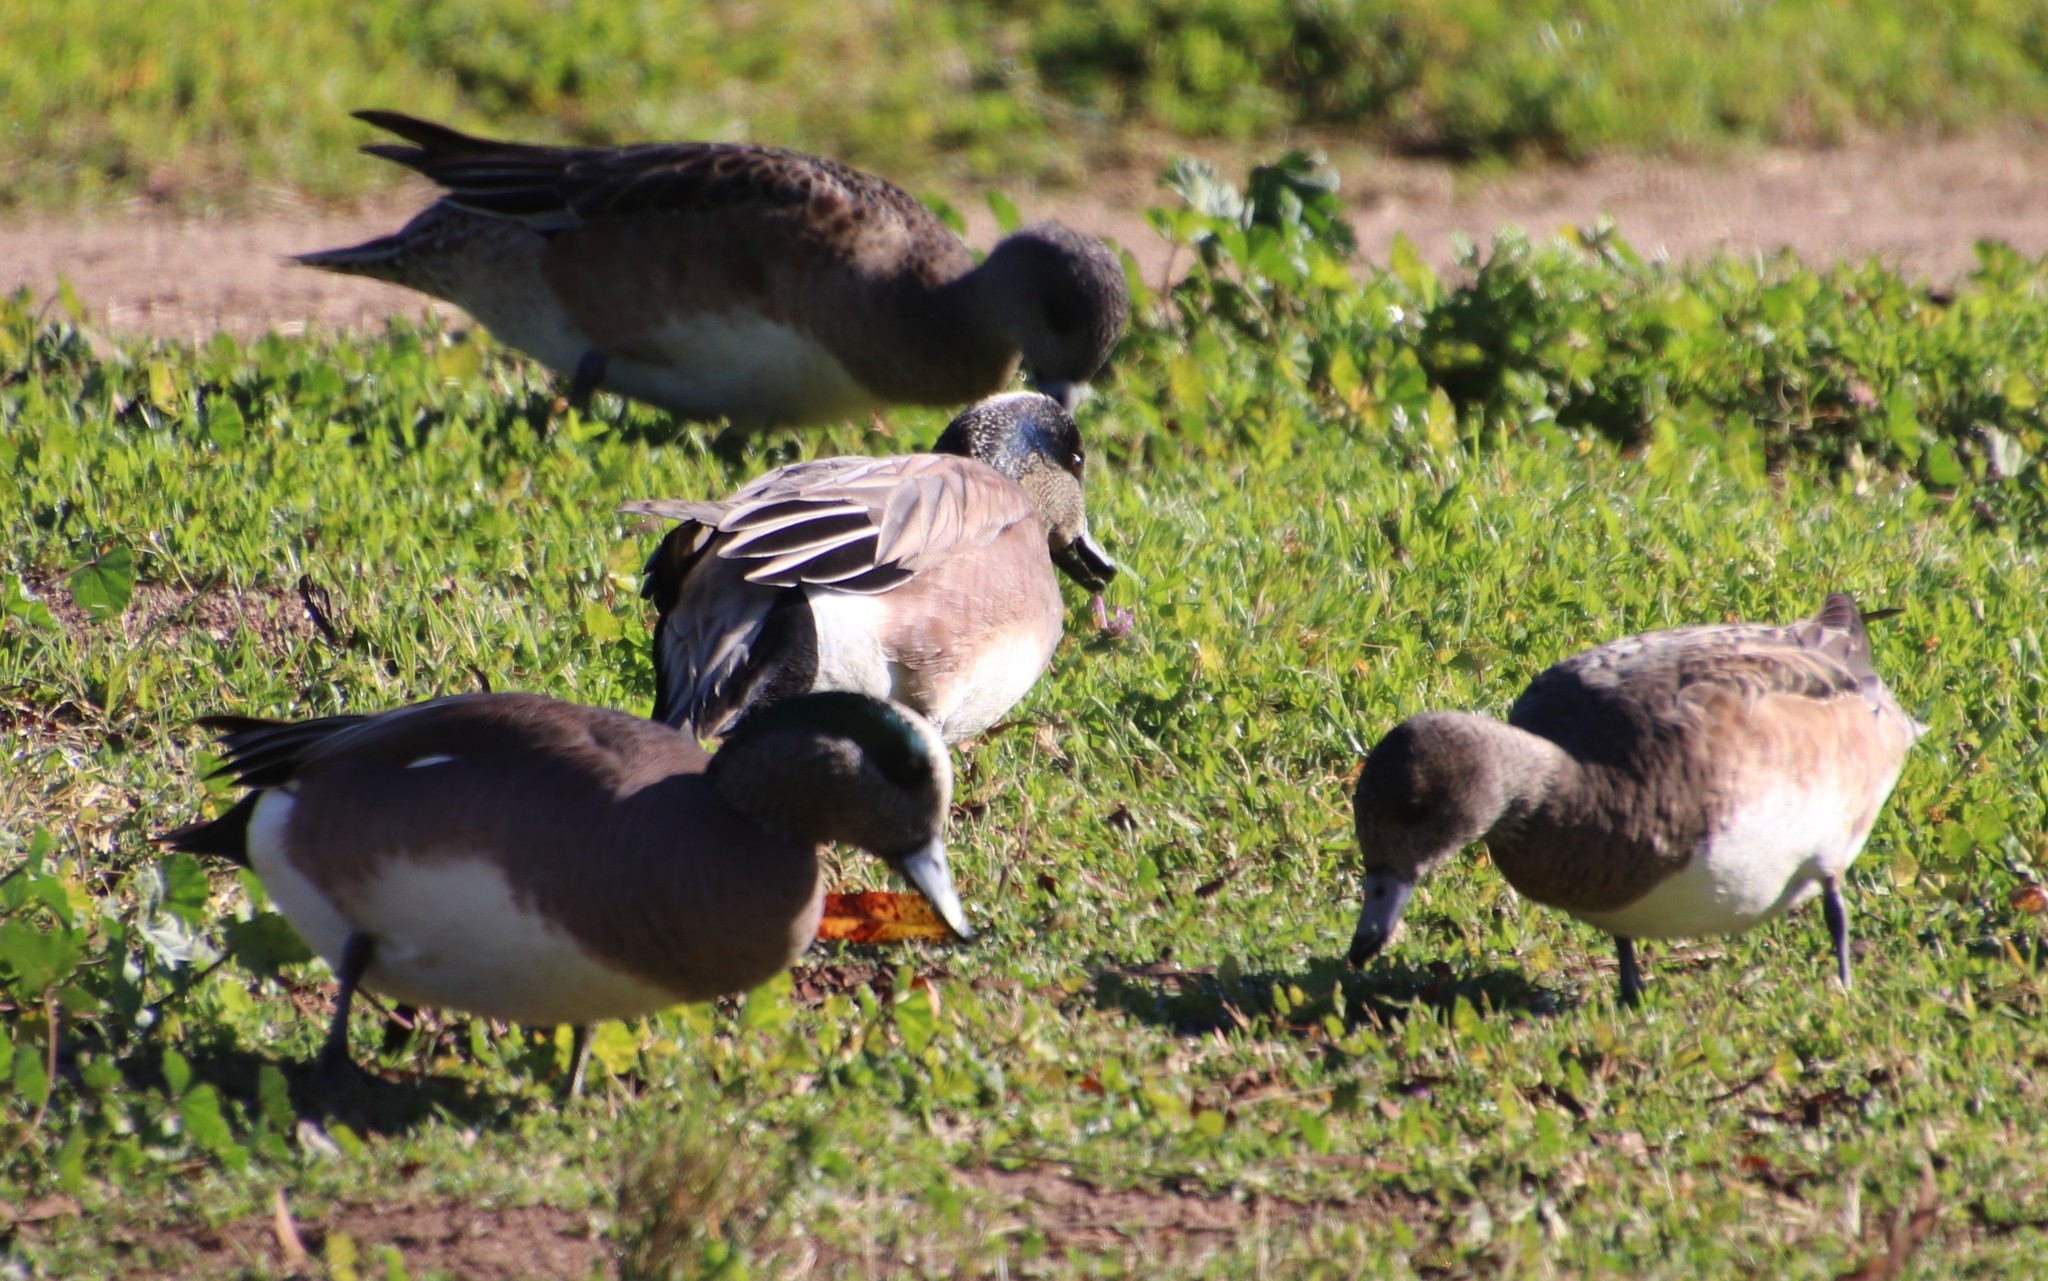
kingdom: Animalia
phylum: Chordata
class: Aves
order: Anseriformes
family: Anatidae
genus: Mareca
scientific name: Mareca americana
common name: American wigeon
